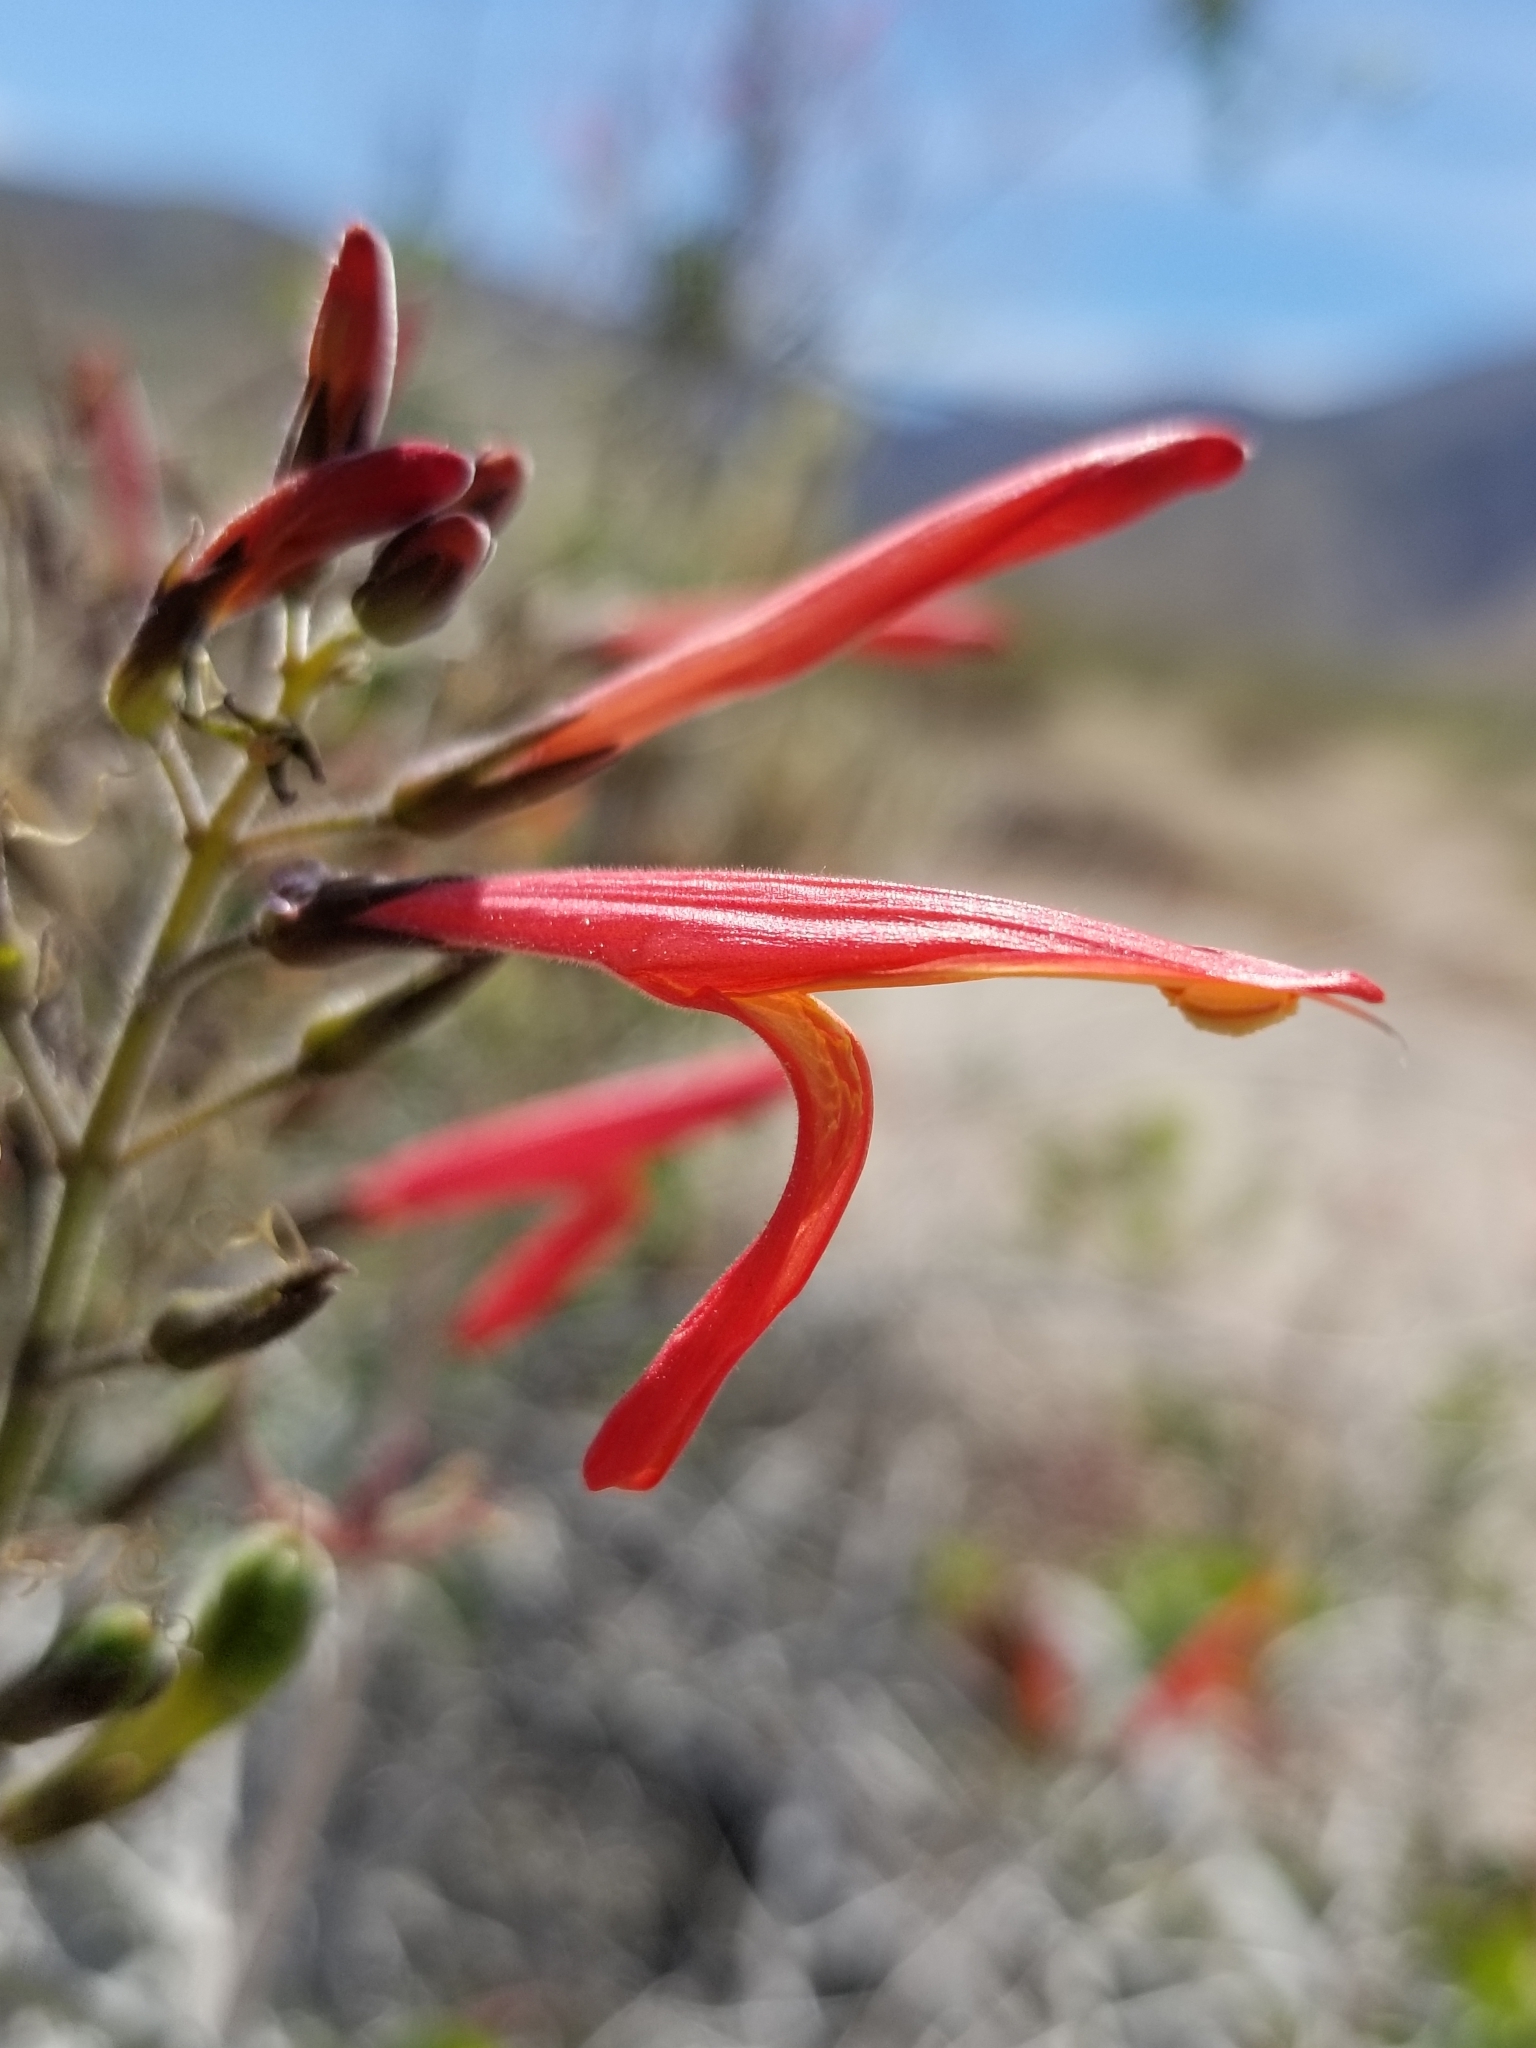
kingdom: Plantae
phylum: Tracheophyta
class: Magnoliopsida
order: Lamiales
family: Acanthaceae
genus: Justicia
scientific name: Justicia californica
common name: Chuparosa-honeysuckle
